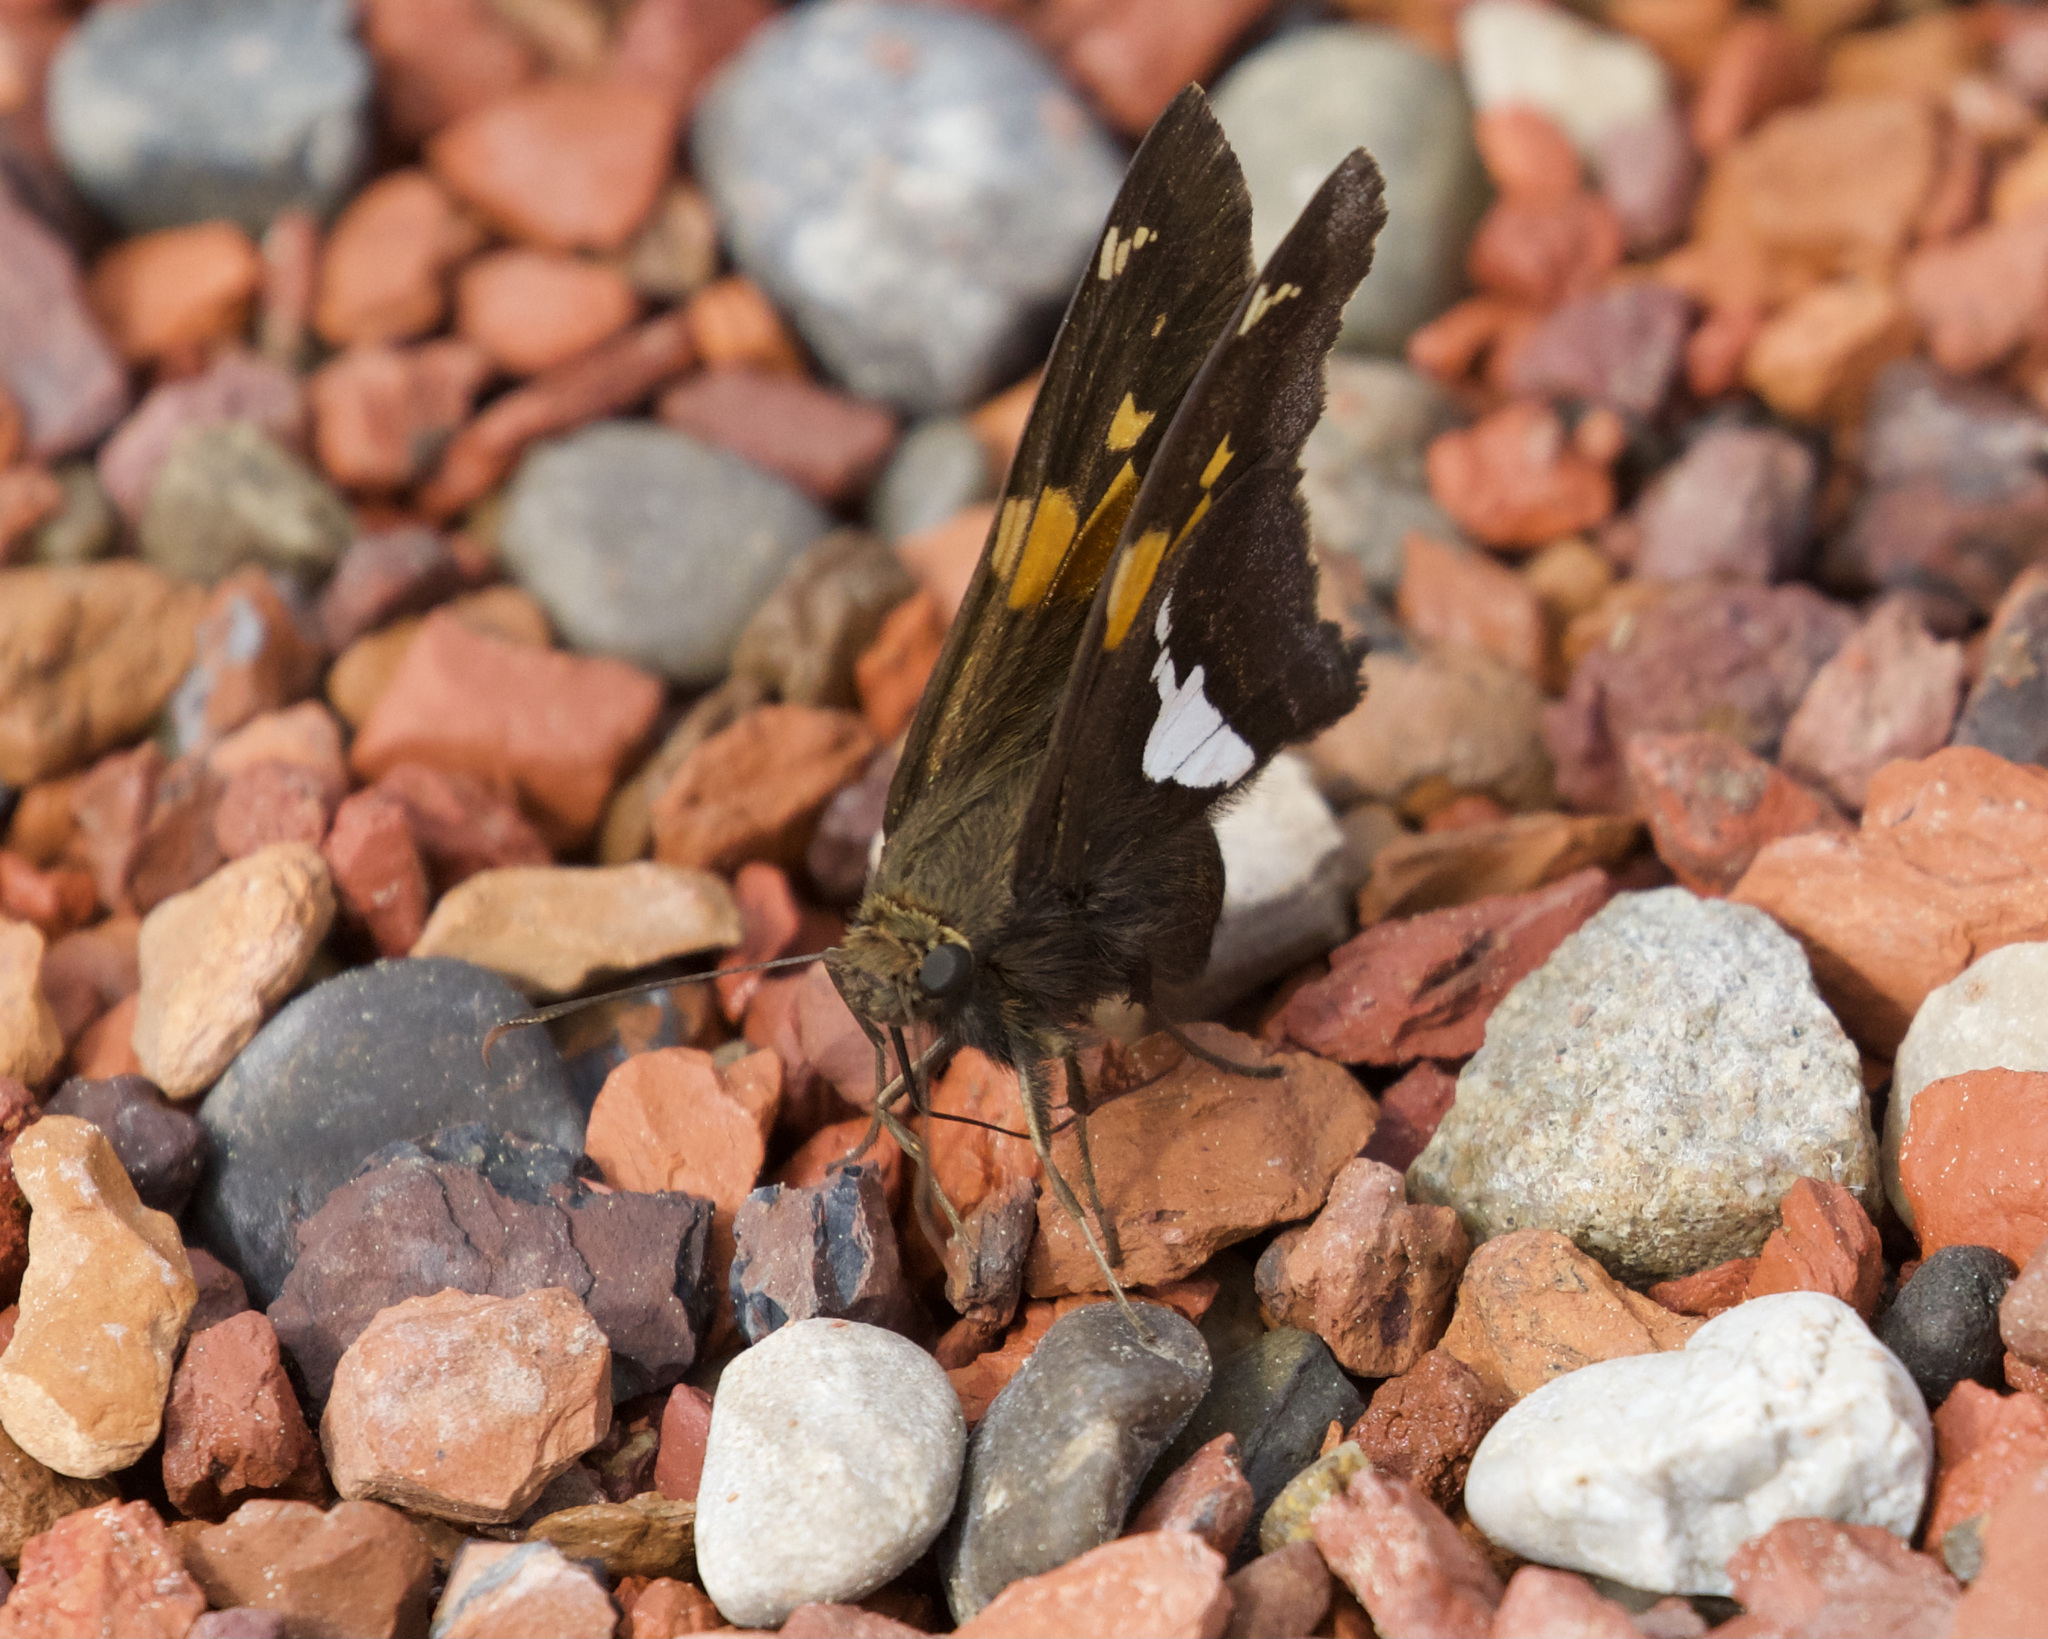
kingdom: Animalia
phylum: Arthropoda
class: Insecta
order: Lepidoptera
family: Hesperiidae
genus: Epargyreus
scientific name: Epargyreus clarus
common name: Silver-spotted skipper
